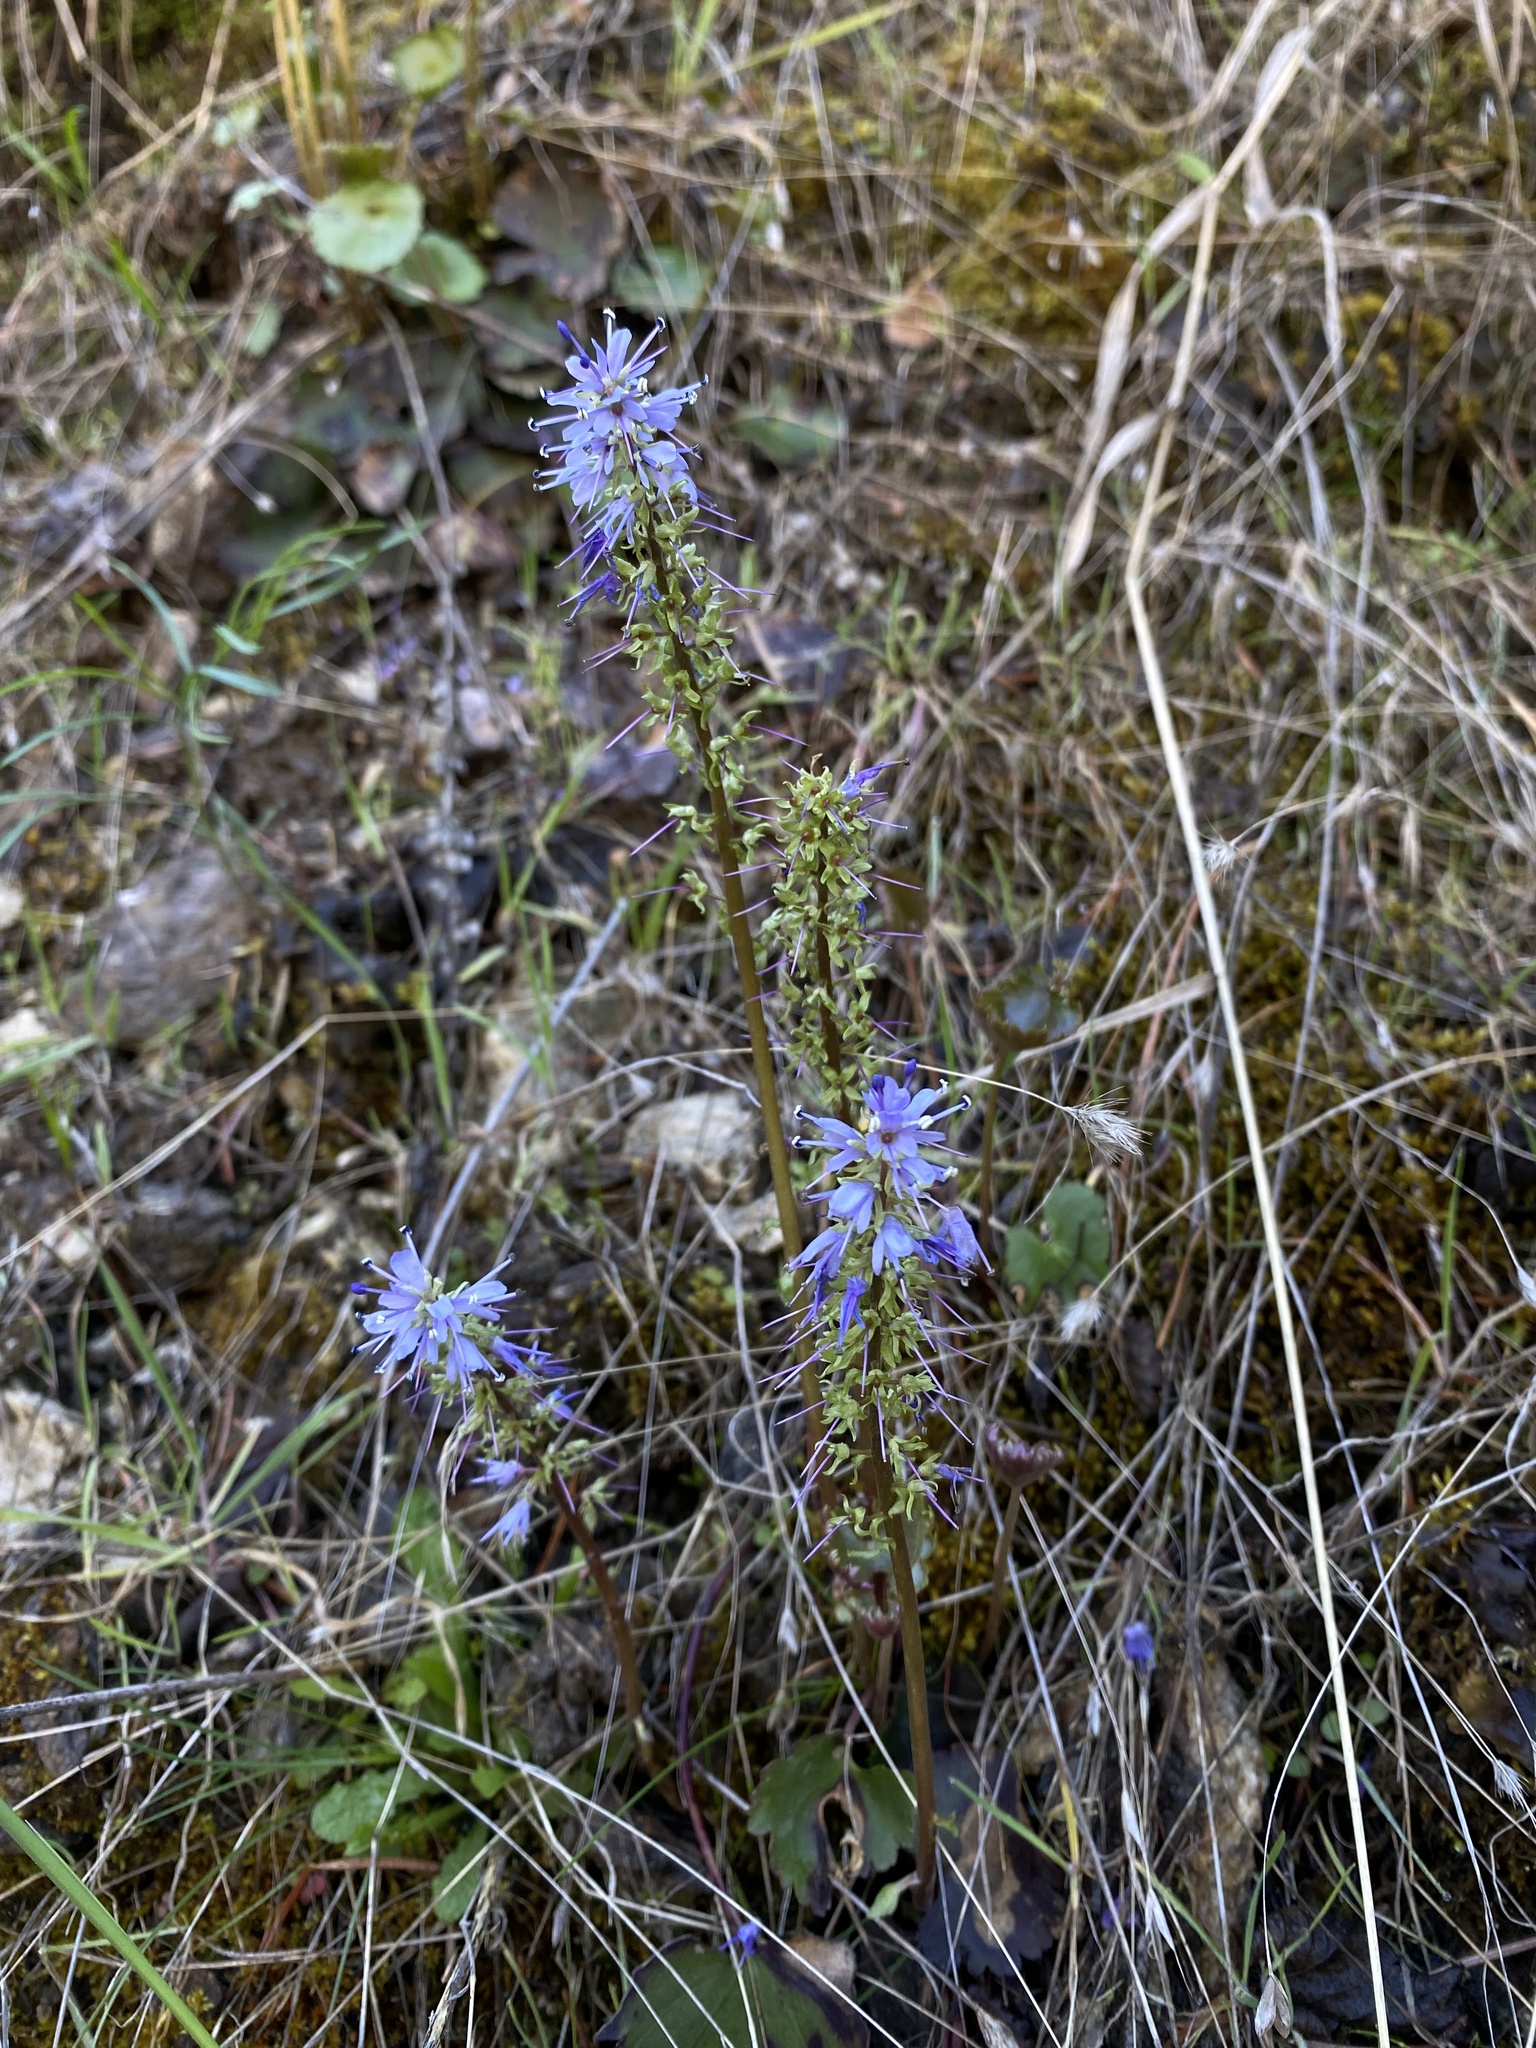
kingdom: Plantae
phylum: Tracheophyta
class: Magnoliopsida
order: Lamiales
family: Plantaginaceae
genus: Synthyris
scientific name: Synthyris missurica
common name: Kitten-tails
